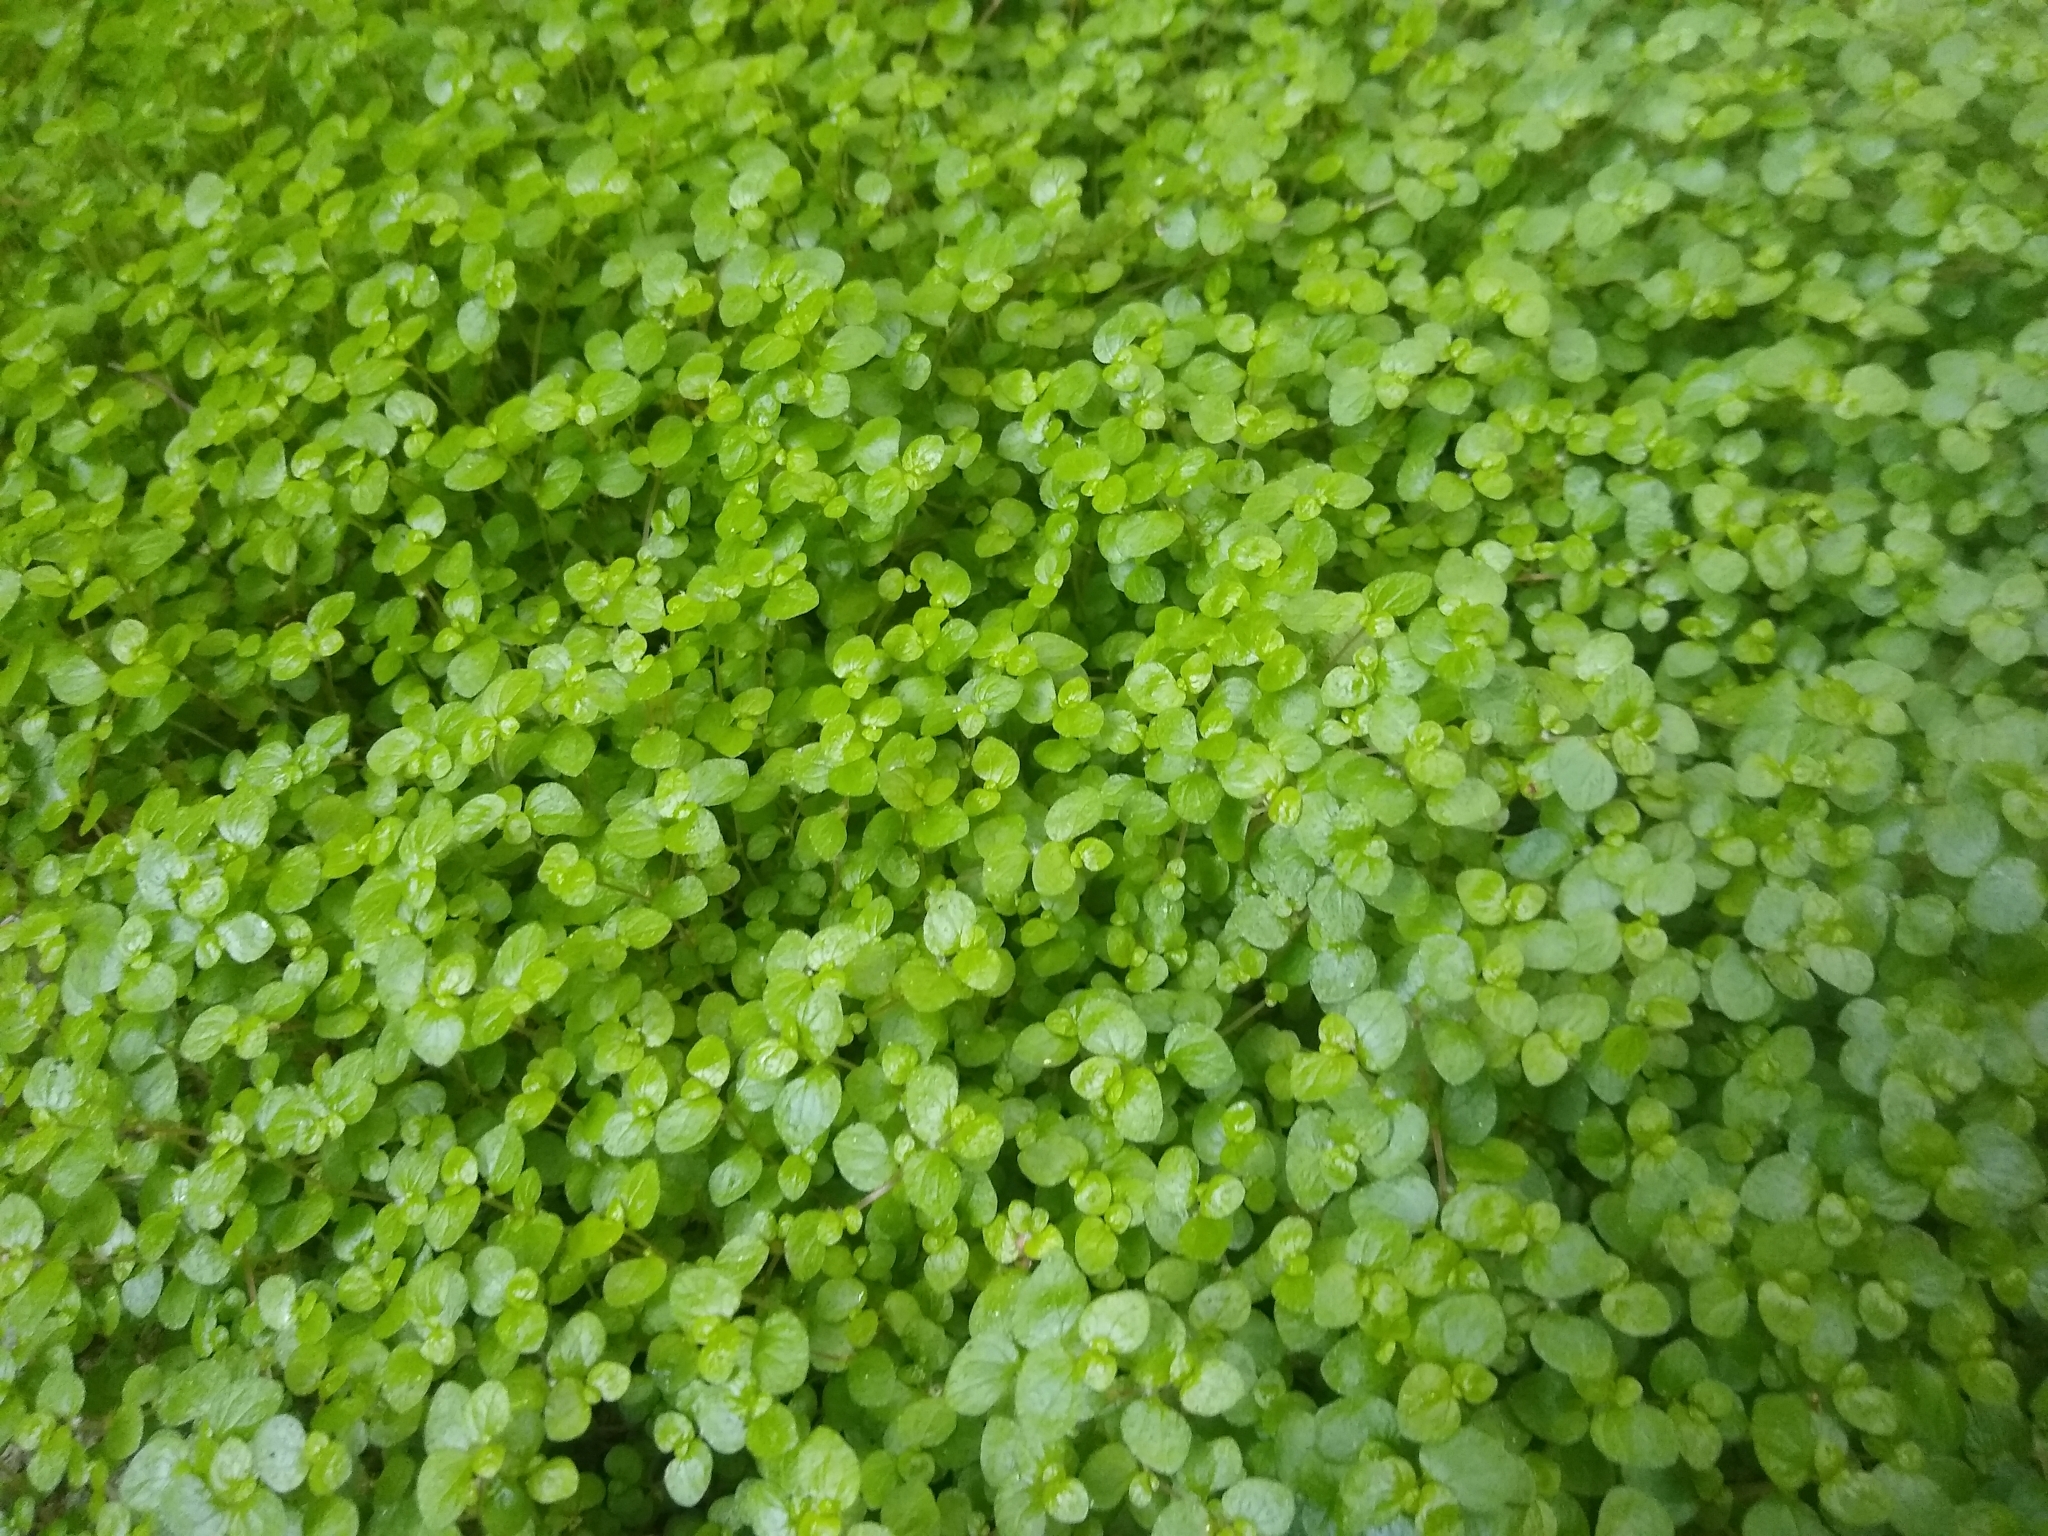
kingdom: Plantae
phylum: Tracheophyta
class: Magnoliopsida
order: Rosales
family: Urticaceae
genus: Soleirolia
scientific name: Soleirolia soleirolii
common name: Mind-your-own-business
